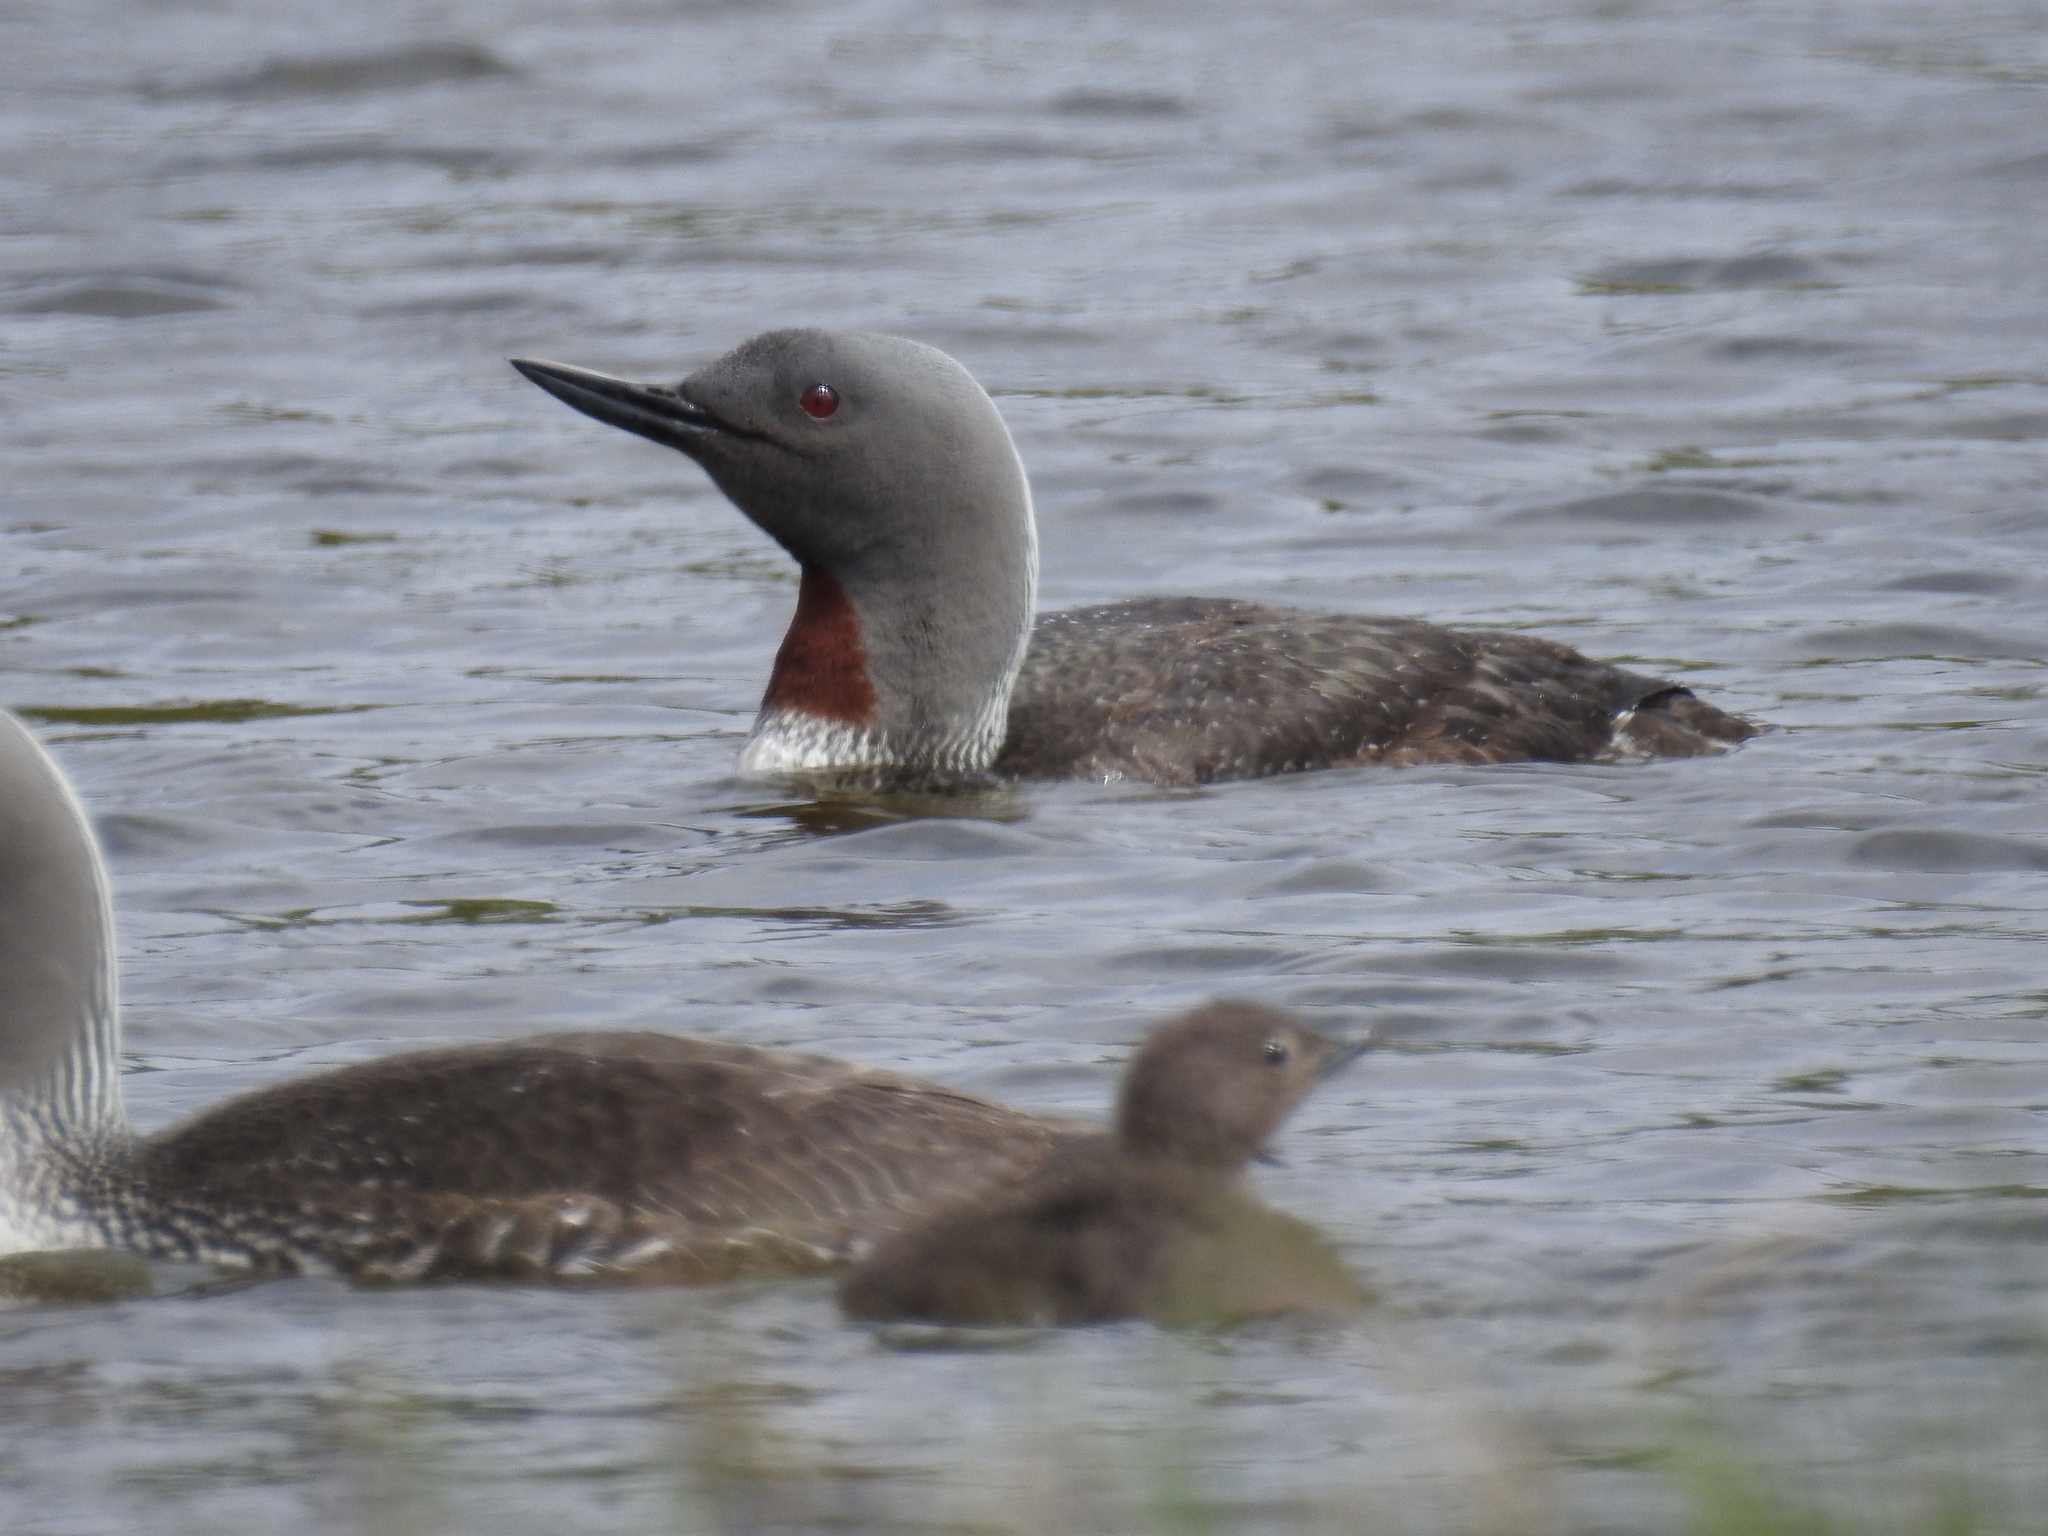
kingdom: Animalia
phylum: Chordata
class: Aves
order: Gaviiformes
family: Gaviidae
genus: Gavia
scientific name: Gavia stellata
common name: Red-throated loon
